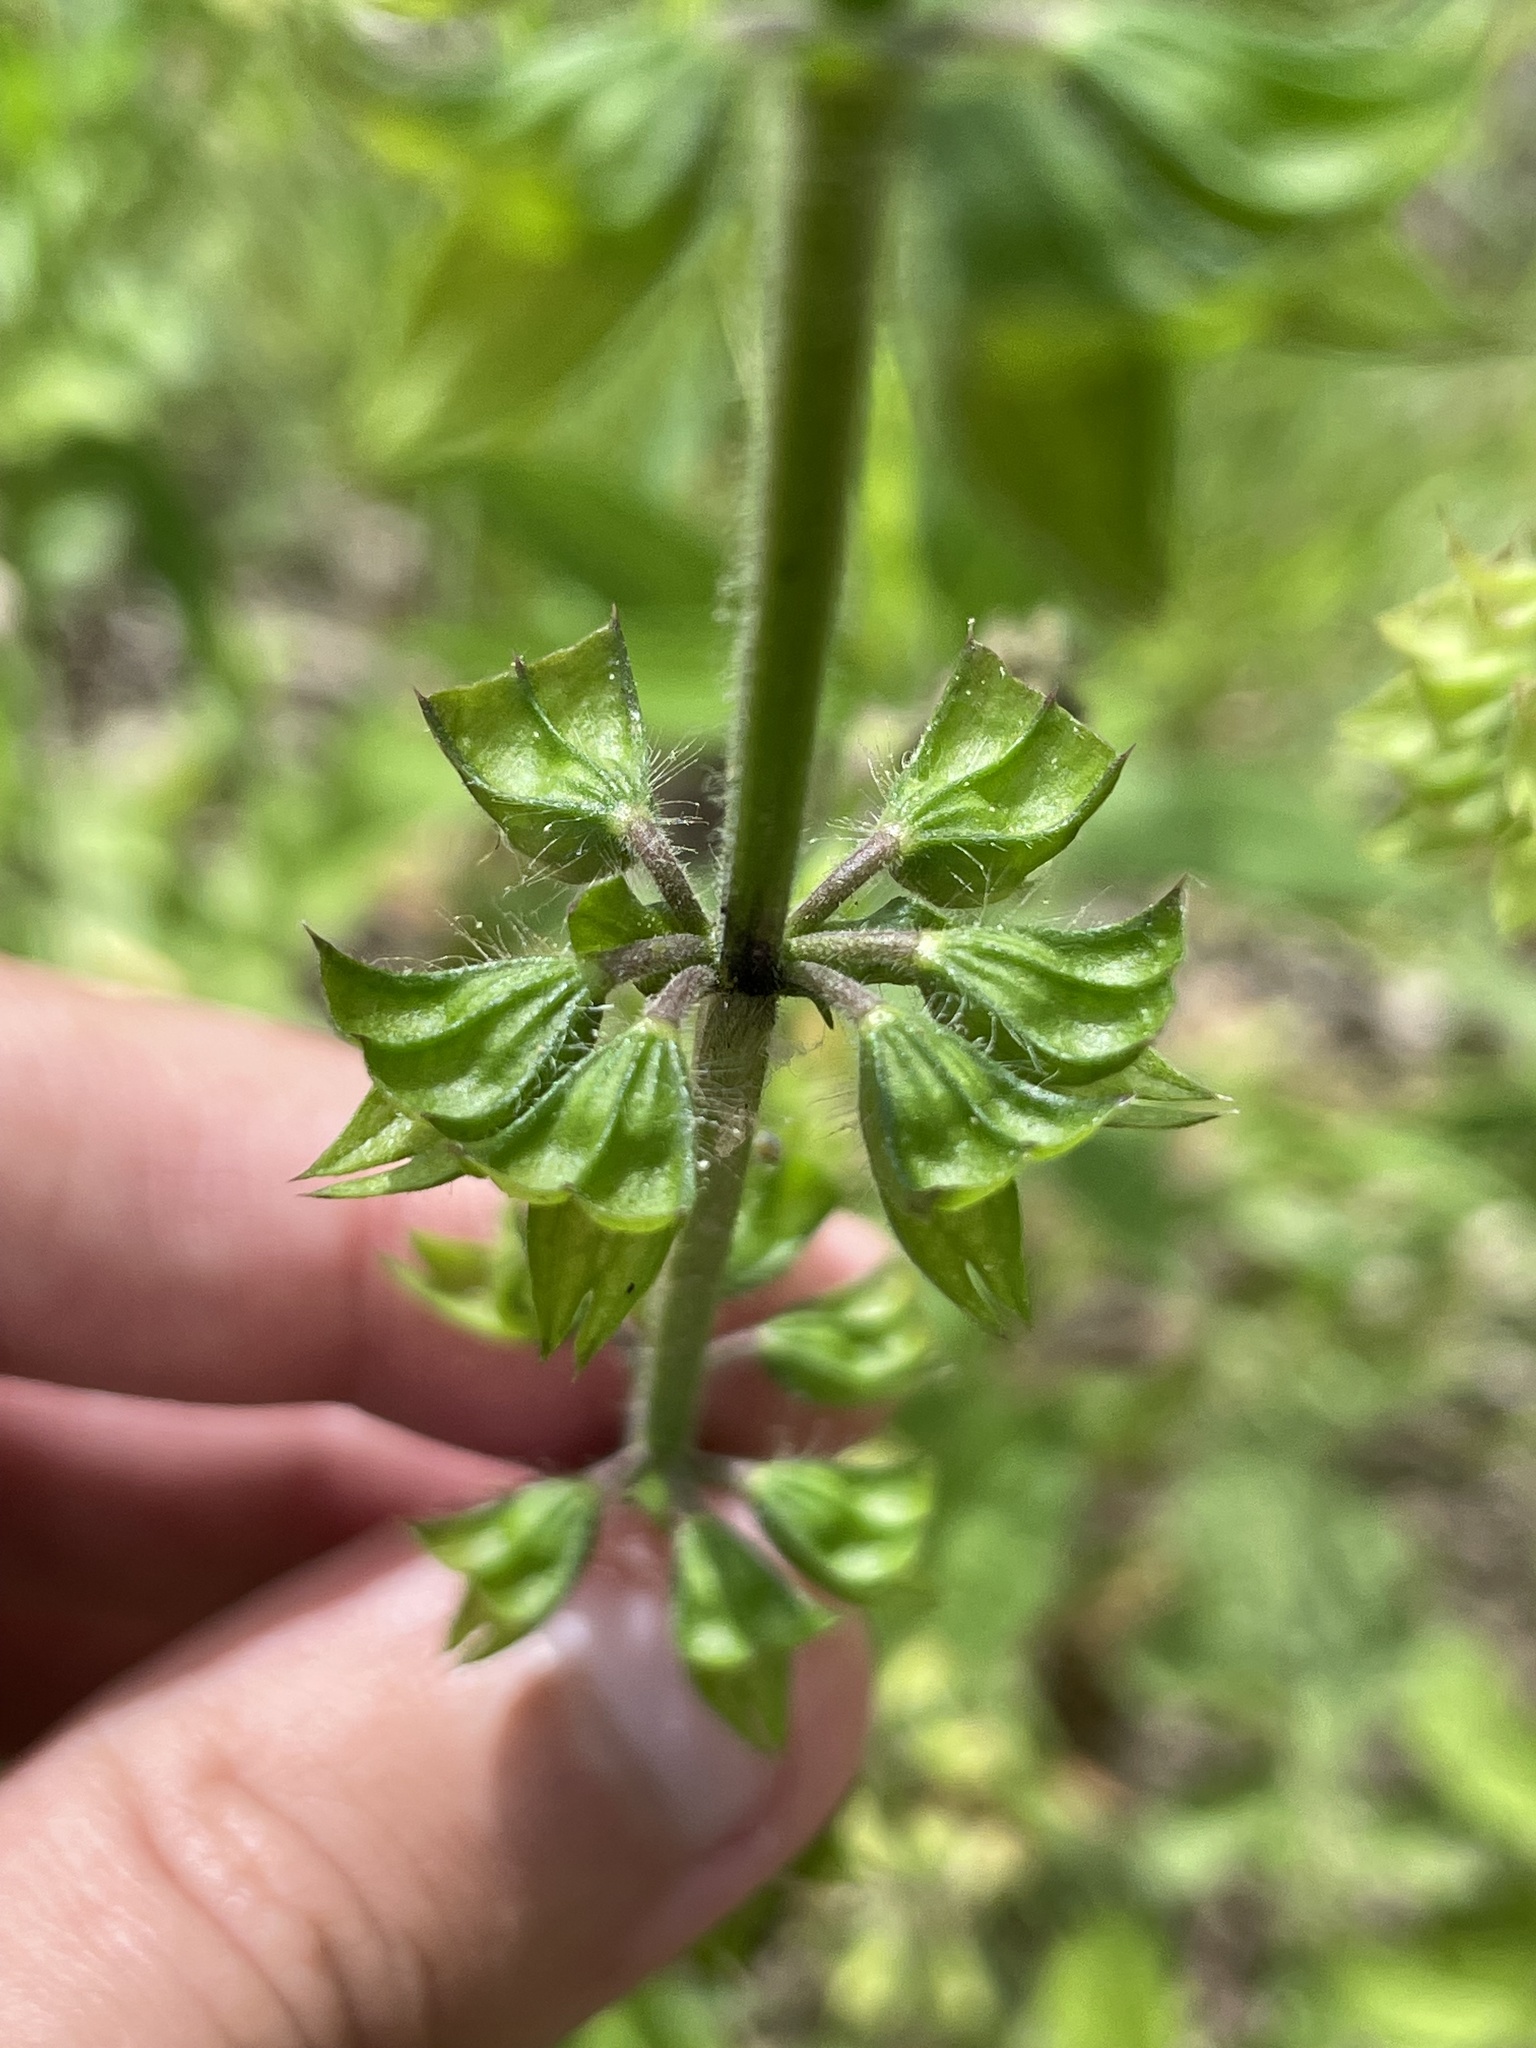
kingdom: Plantae
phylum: Tracheophyta
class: Magnoliopsida
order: Lamiales
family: Lamiaceae
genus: Salvia
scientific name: Salvia lyrata
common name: Cancerweed
